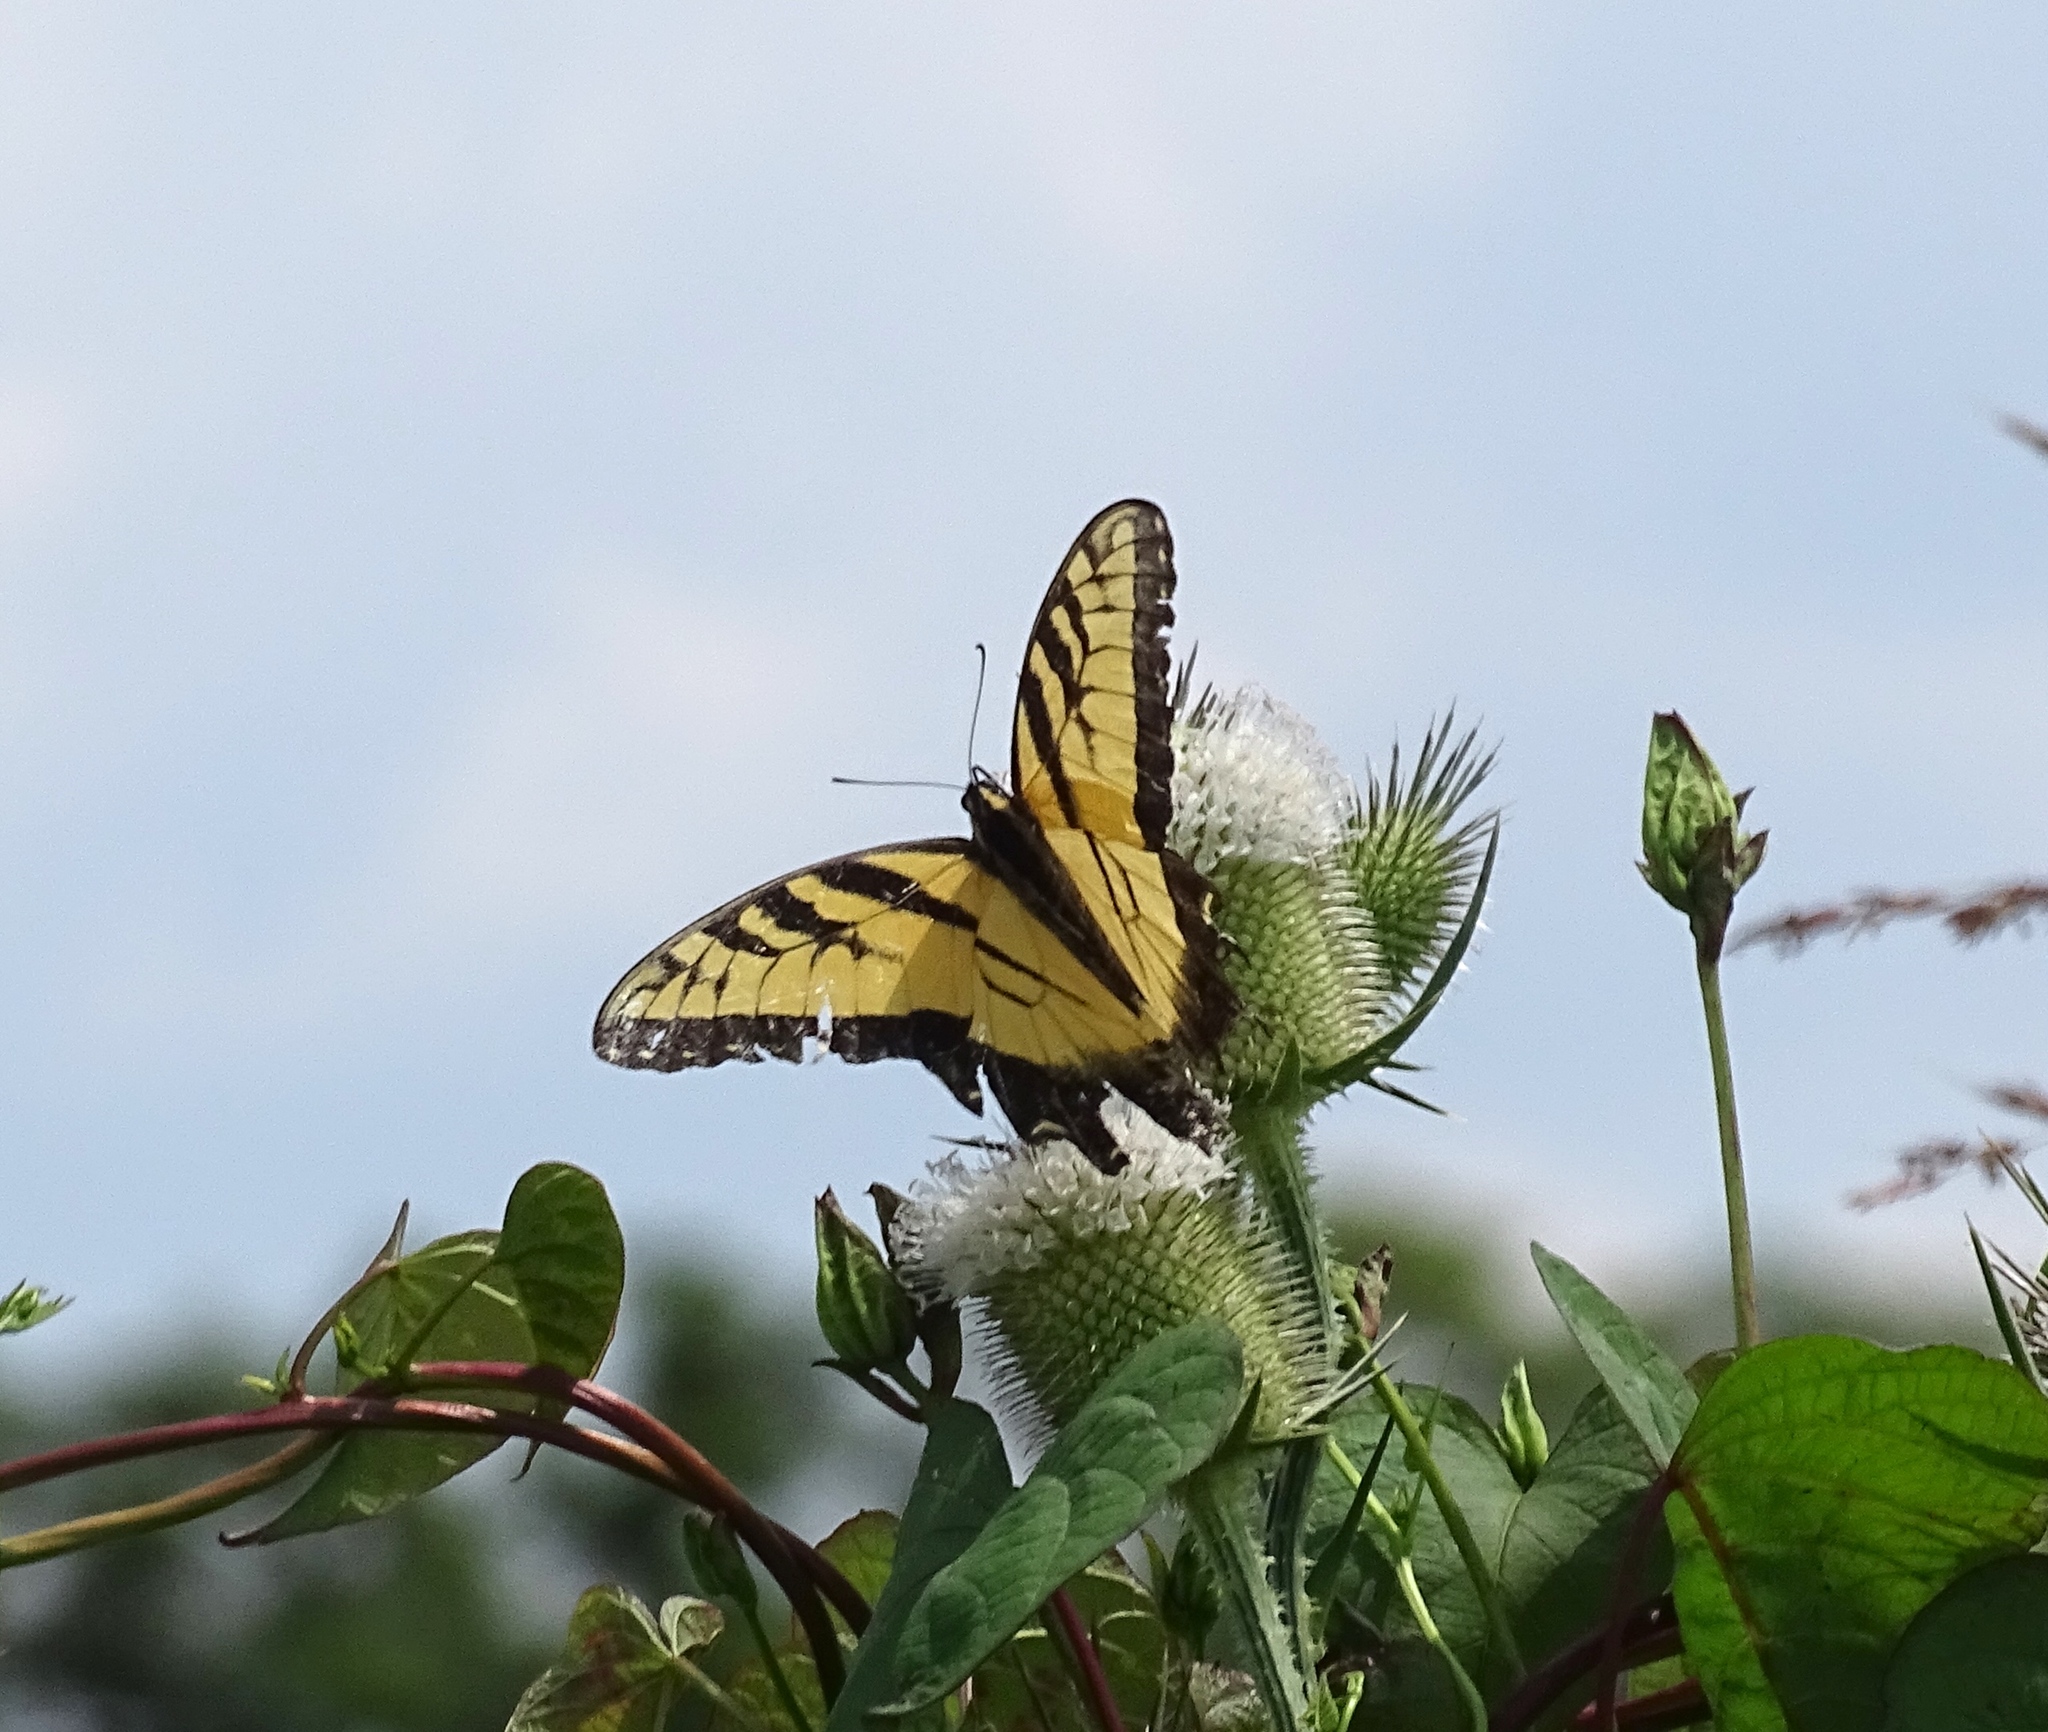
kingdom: Animalia
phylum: Arthropoda
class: Insecta
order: Lepidoptera
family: Papilionidae
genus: Papilio
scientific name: Papilio glaucus
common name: Tiger swallowtail
